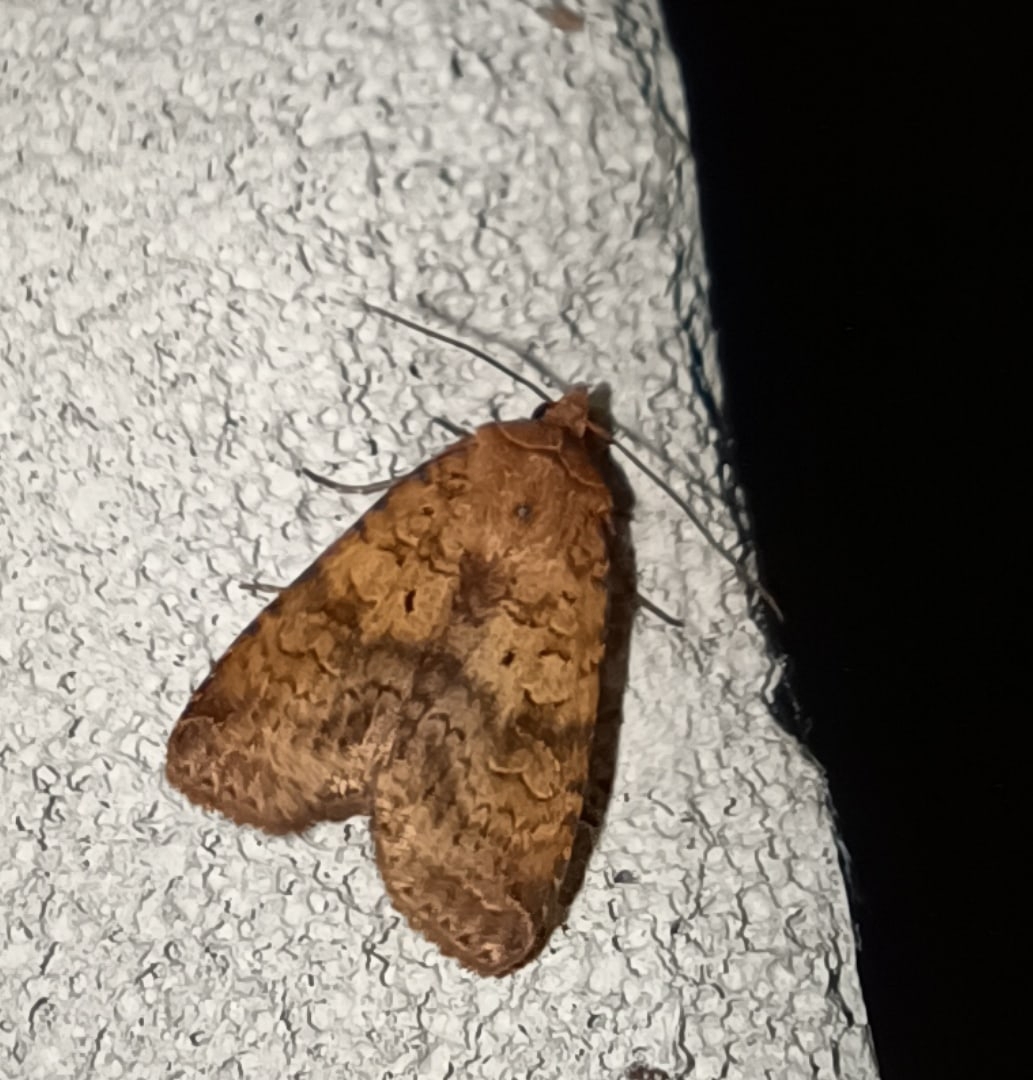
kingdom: Animalia
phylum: Arthropoda
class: Insecta
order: Lepidoptera
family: Noctuidae
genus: Diarsia
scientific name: Diarsia dahlii
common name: Barred chestnut
